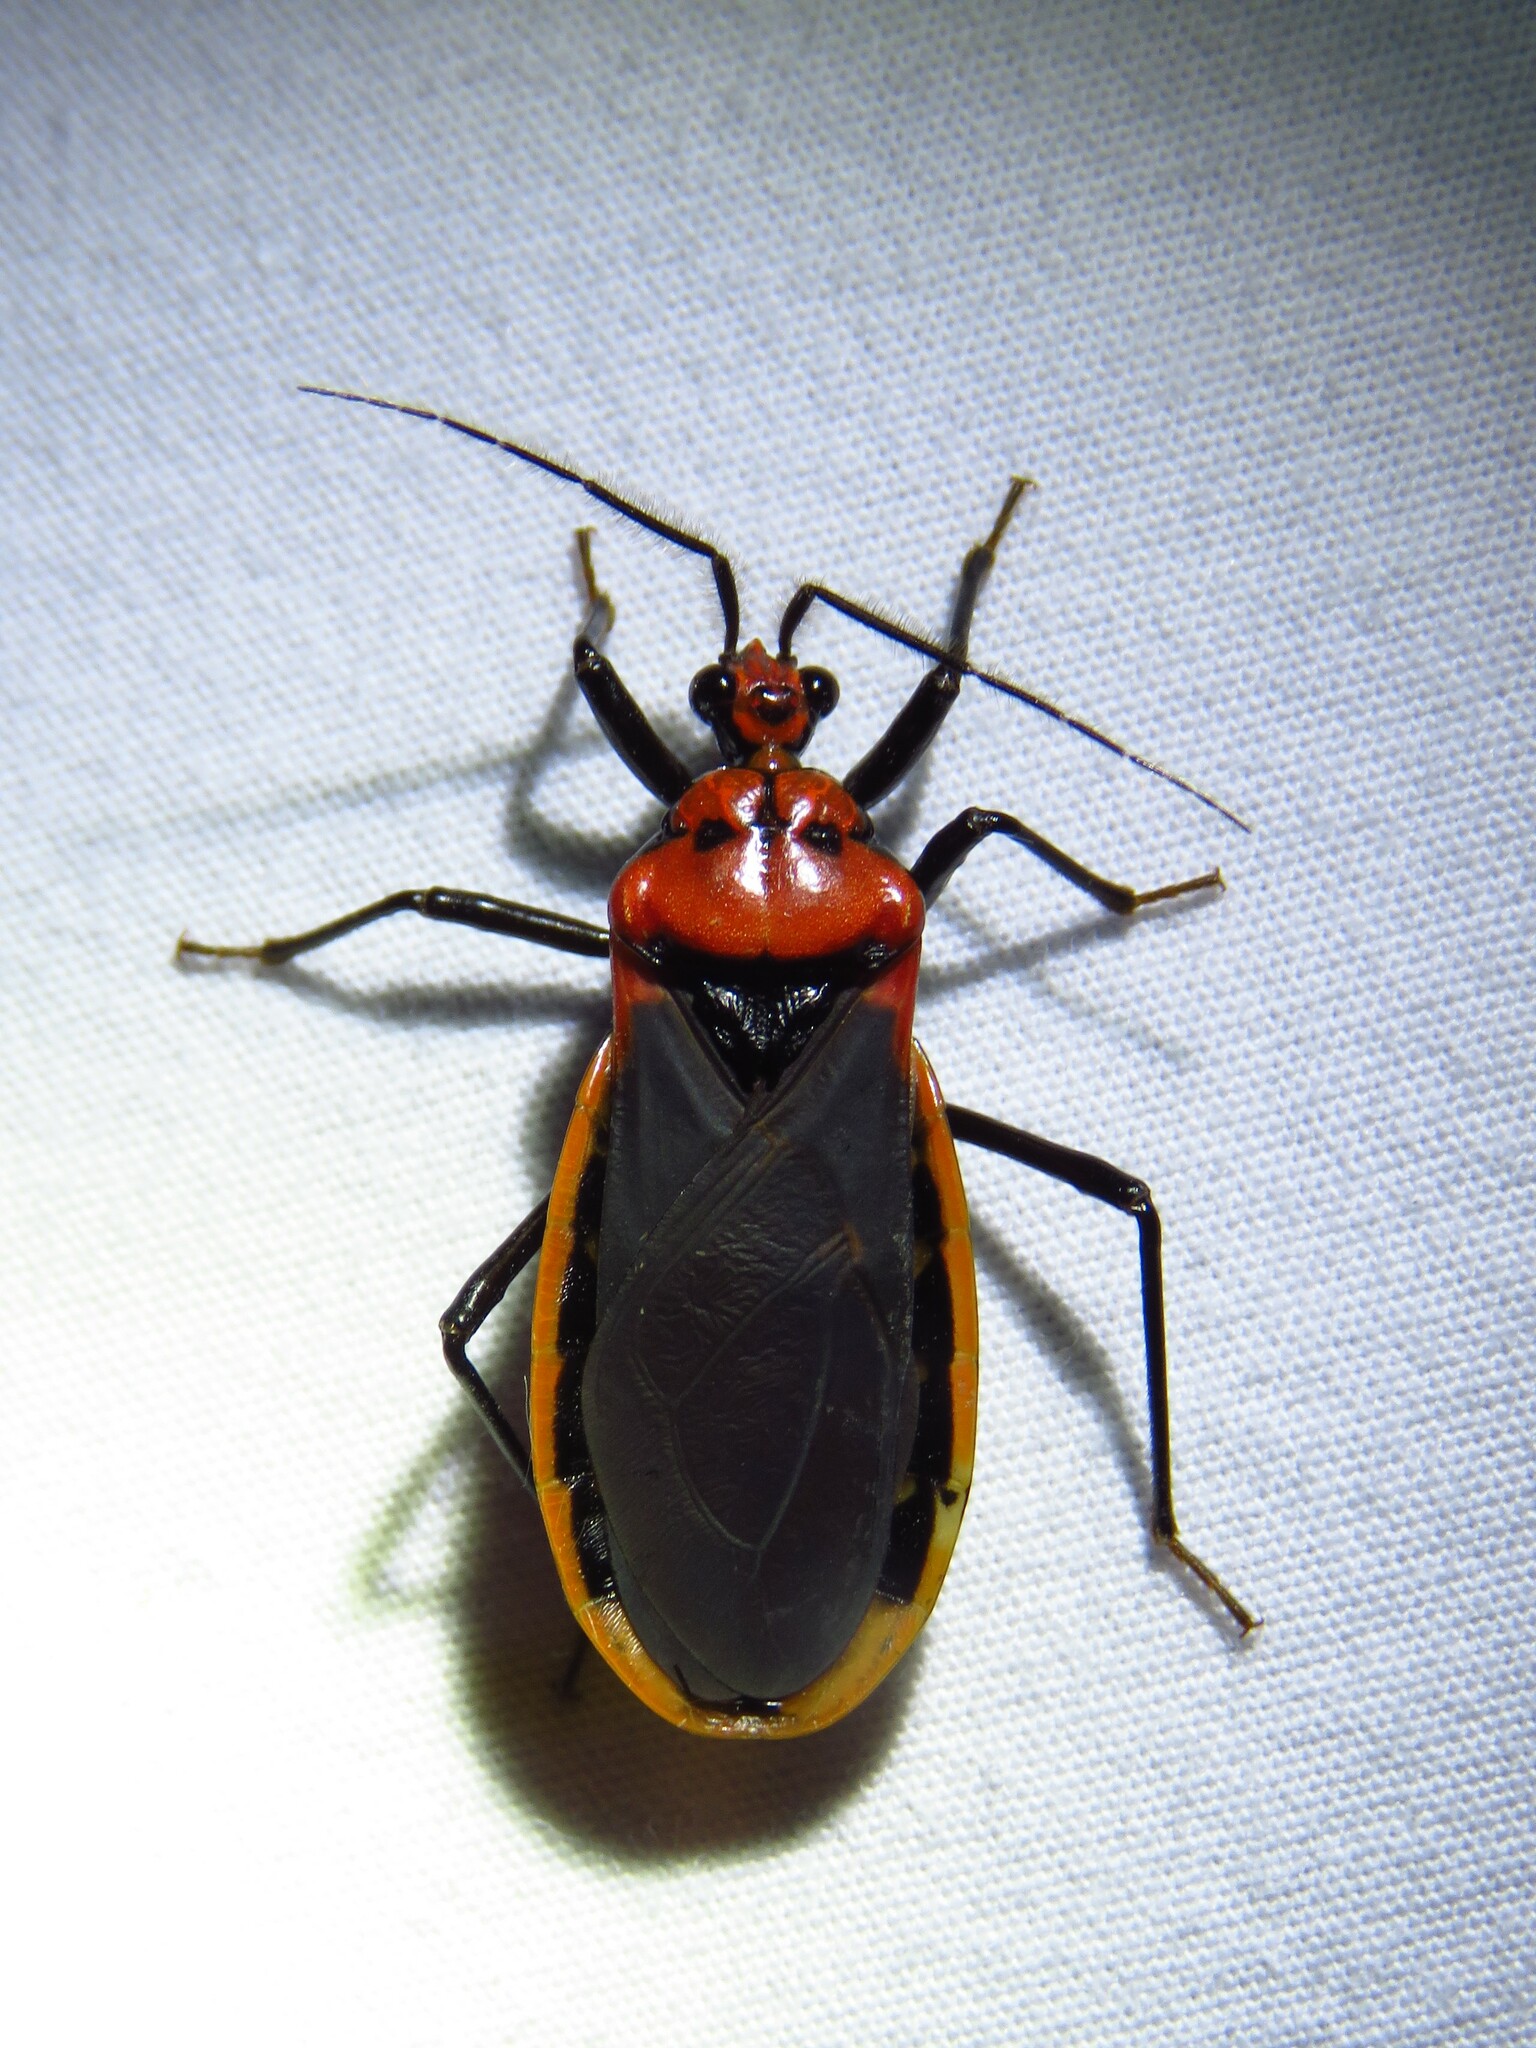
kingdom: Animalia
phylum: Arthropoda
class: Insecta
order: Hemiptera
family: Reduviidae
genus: Rhiginia
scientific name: Rhiginia cinctiventris
